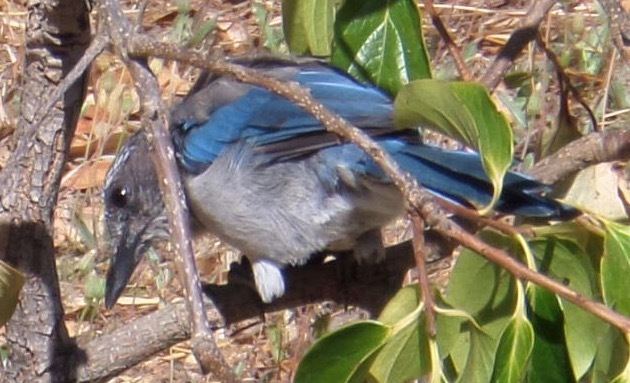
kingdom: Animalia
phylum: Chordata
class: Aves
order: Passeriformes
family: Corvidae
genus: Aphelocoma
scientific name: Aphelocoma californica
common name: California scrub-jay
